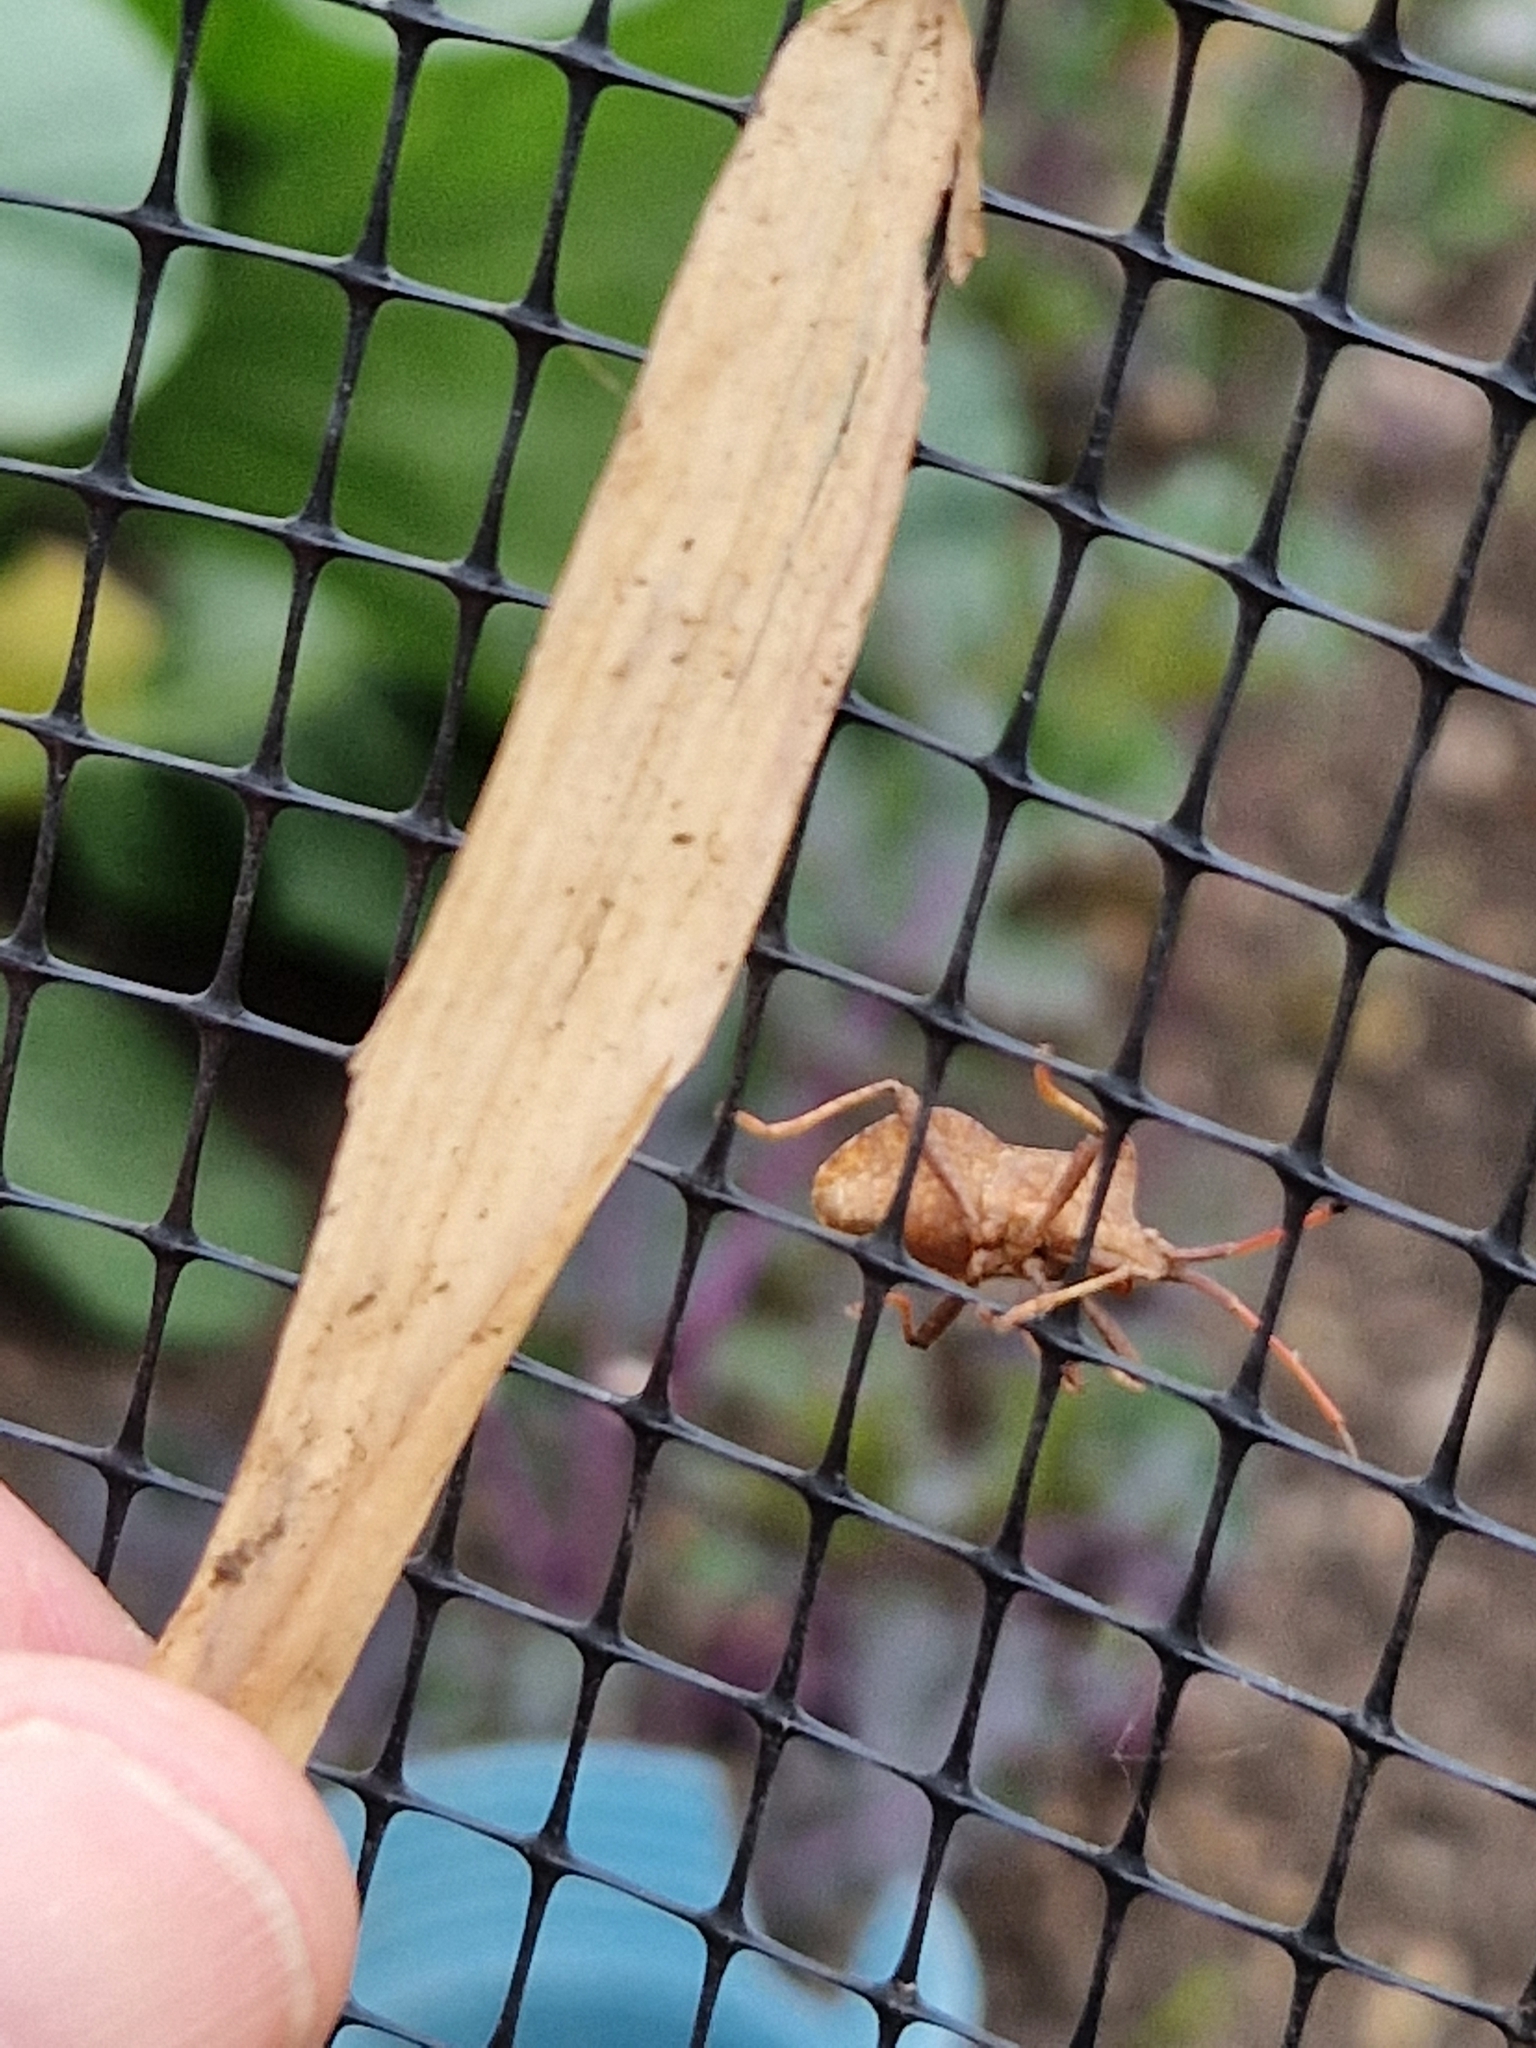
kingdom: Animalia
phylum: Arthropoda
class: Insecta
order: Hemiptera
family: Coreidae
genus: Coreus
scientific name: Coreus marginatus
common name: Dock bug
